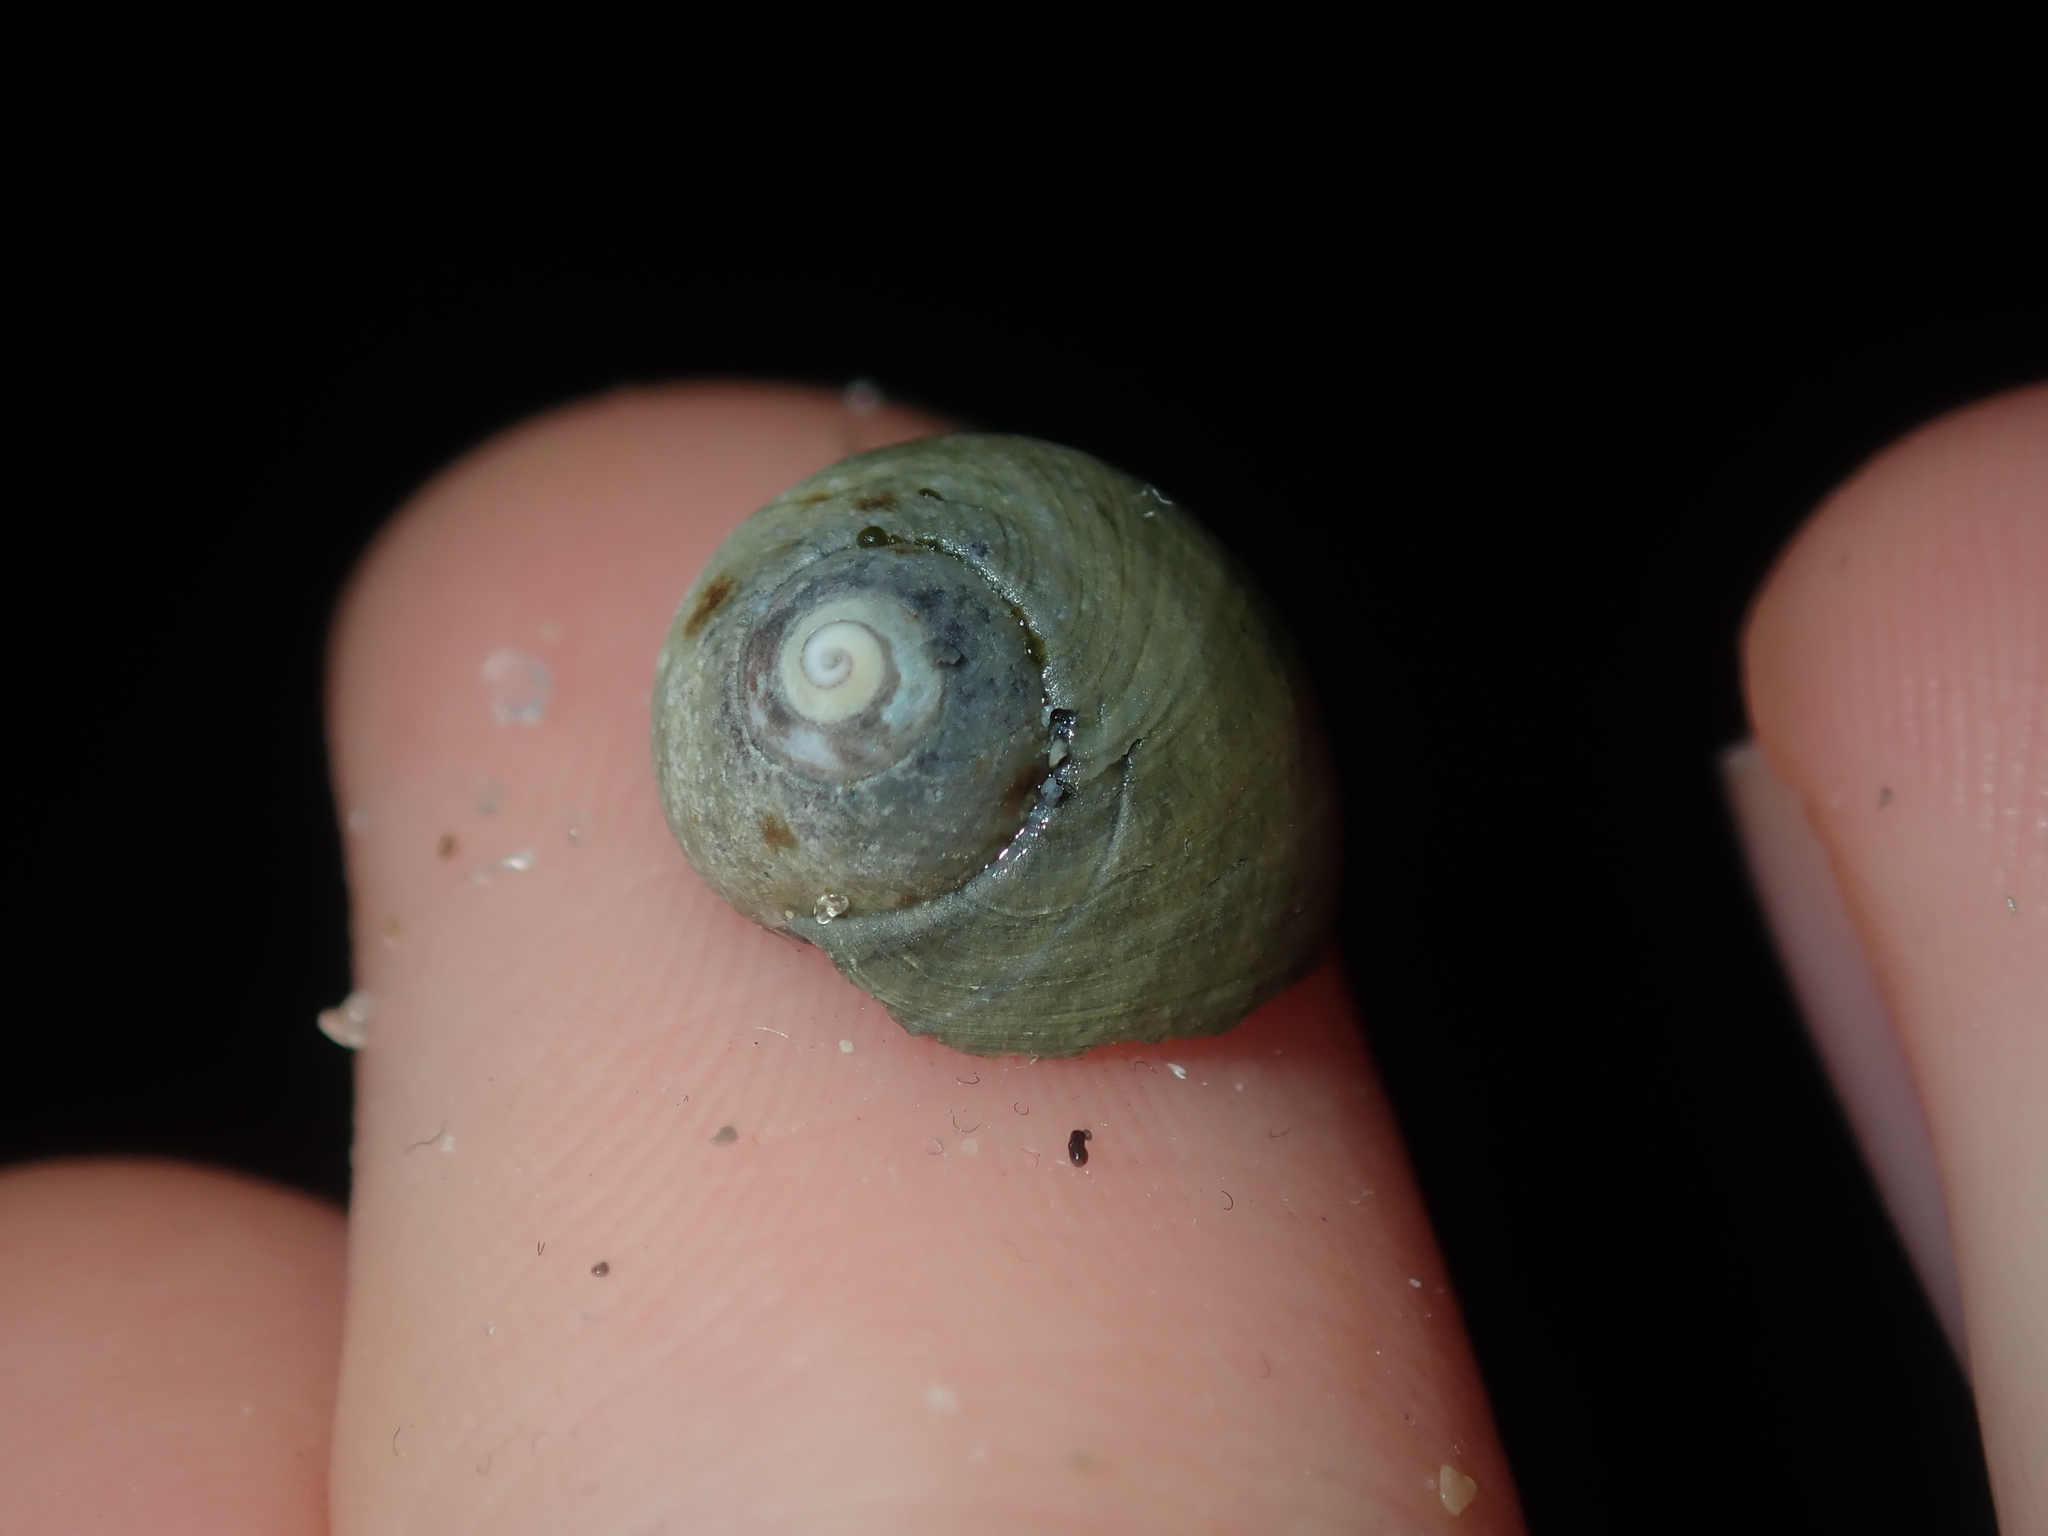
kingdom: Animalia
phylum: Mollusca
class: Gastropoda
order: Trochida
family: Trochidae
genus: Austrocochlea
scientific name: Austrocochlea rudis
